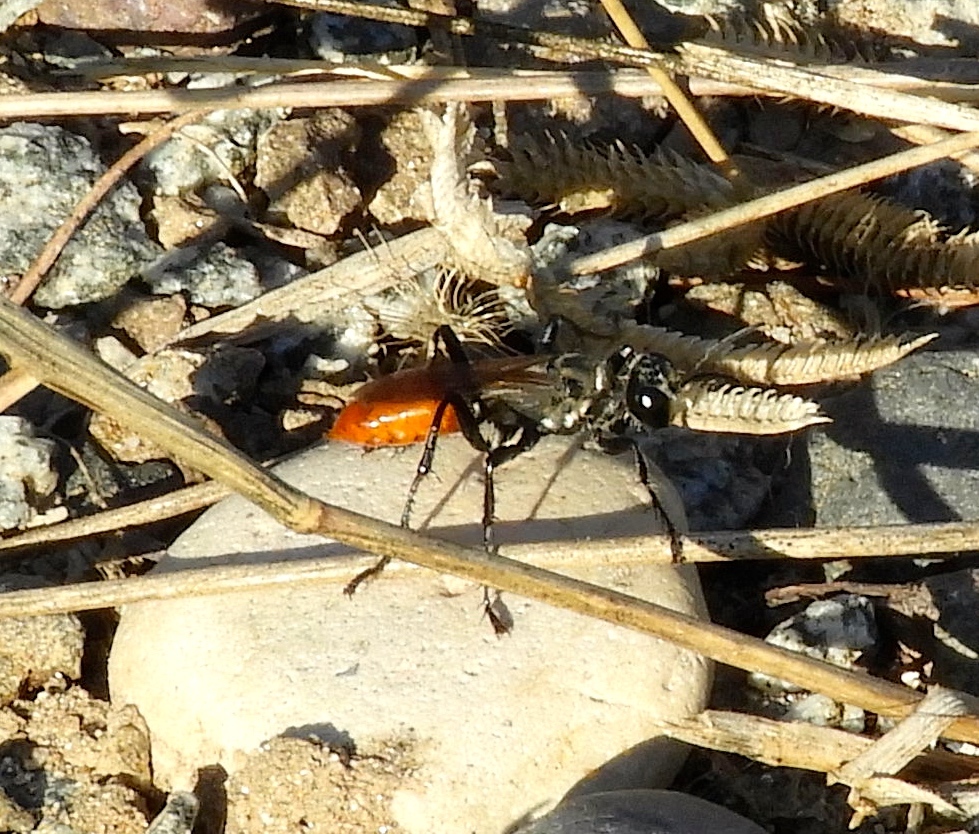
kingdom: Animalia
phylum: Arthropoda
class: Insecta
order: Hymenoptera
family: Sphecidae
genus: Prionyx
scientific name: Prionyx
